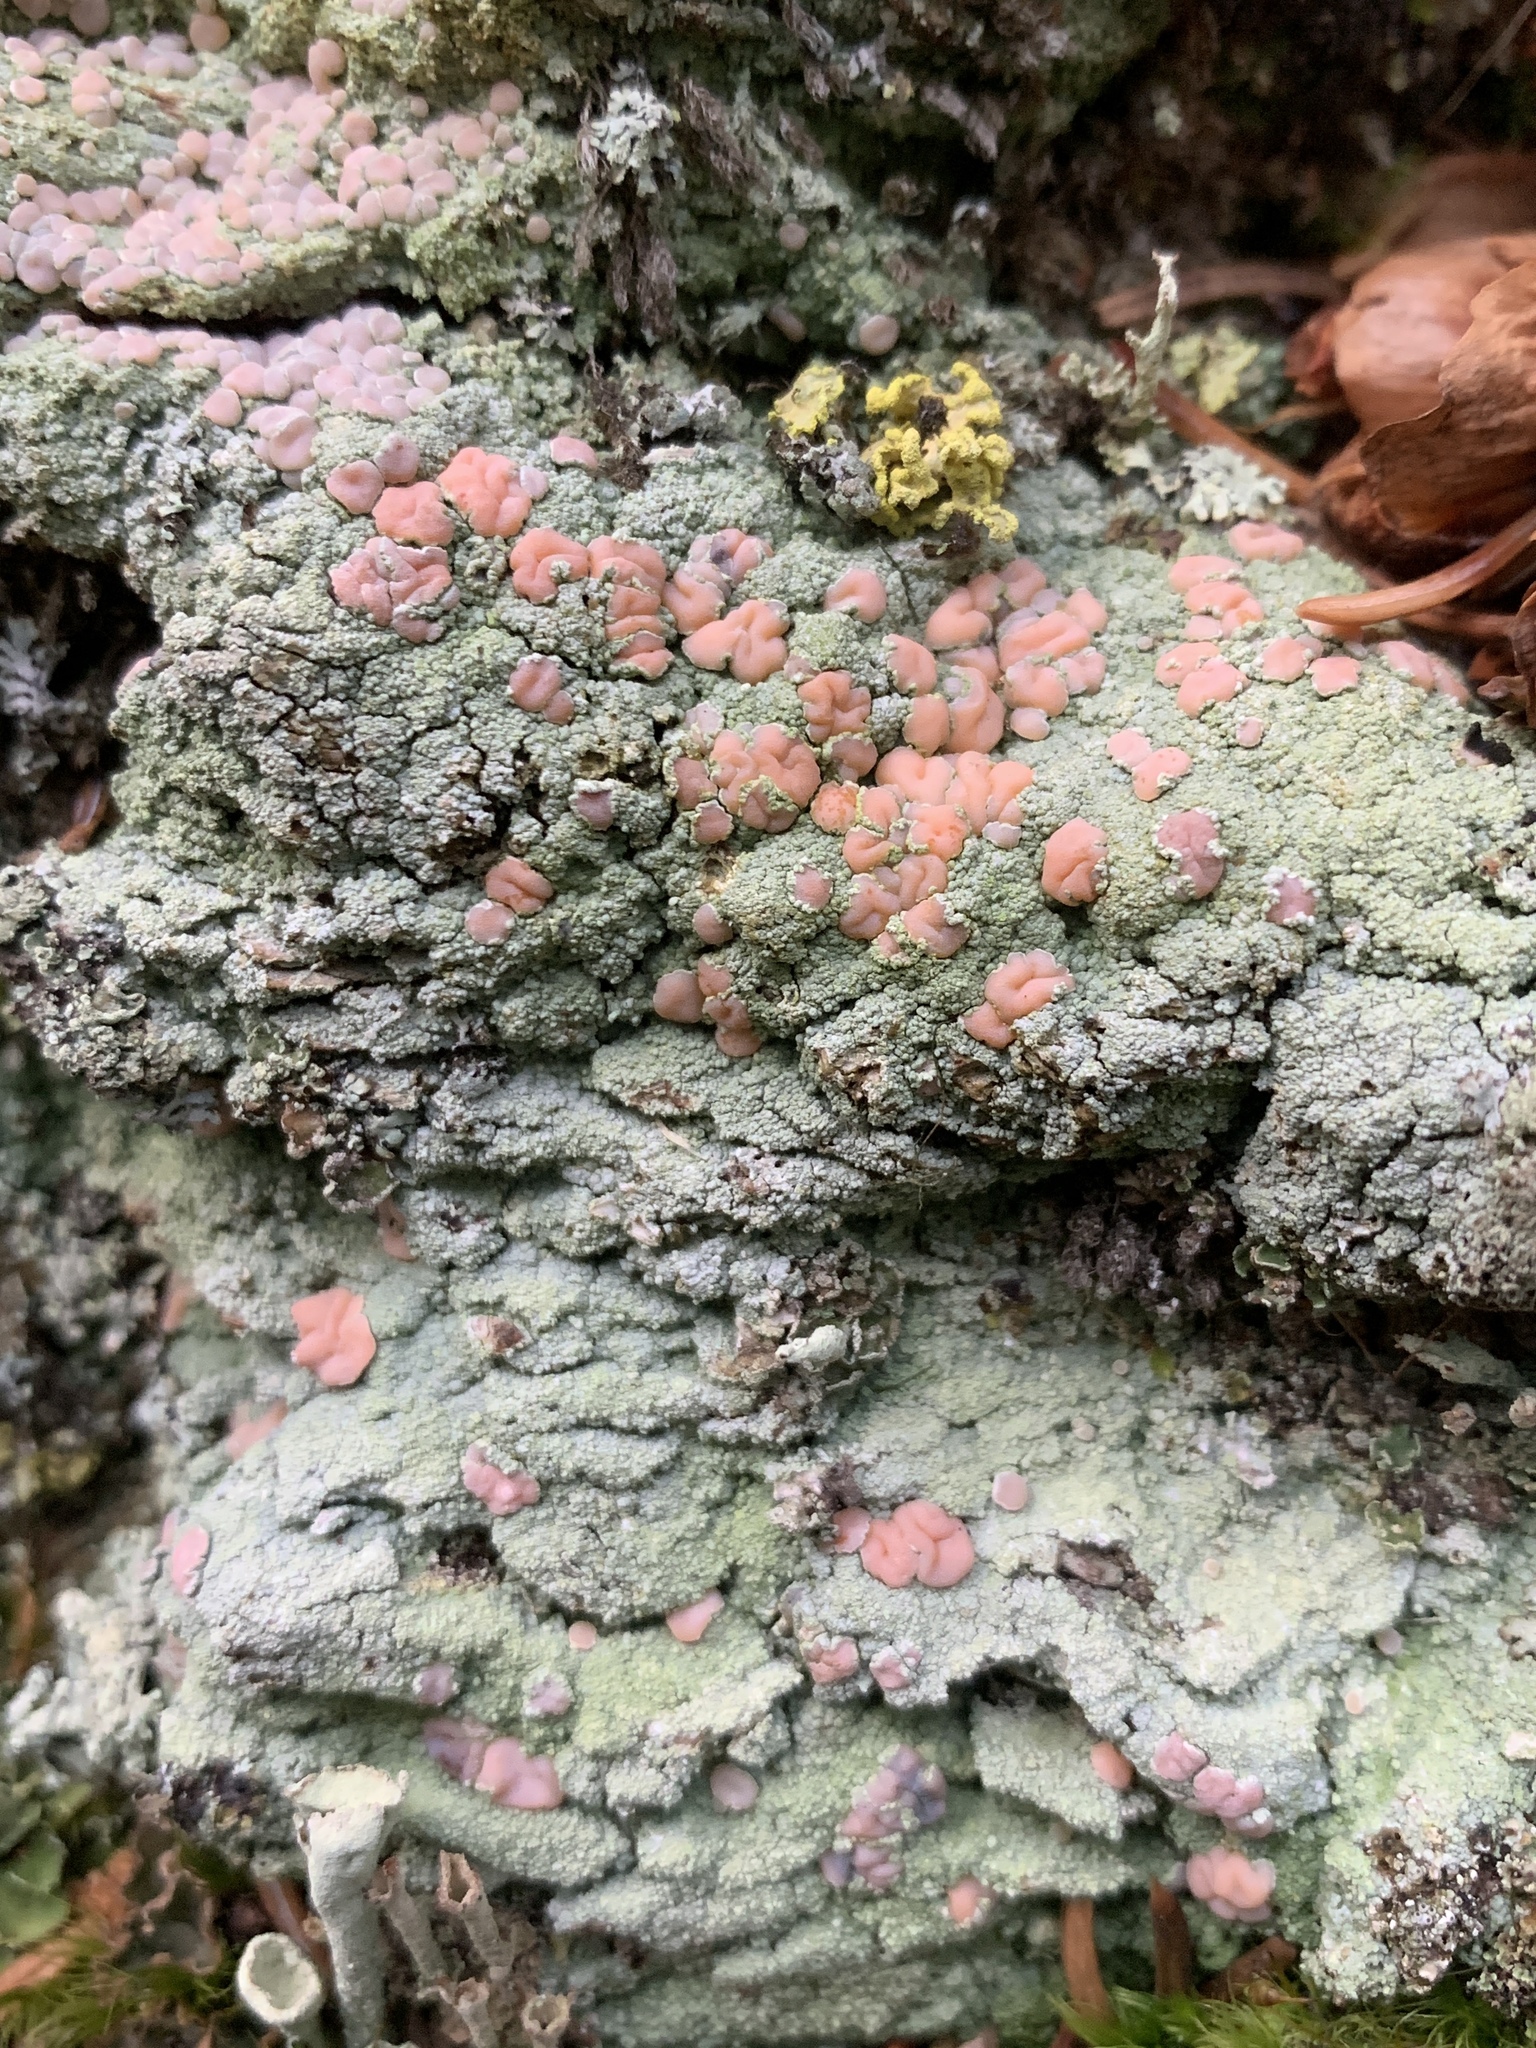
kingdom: Fungi
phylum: Ascomycota
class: Lecanoromycetes
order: Pertusariales
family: Icmadophilaceae
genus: Icmadophila
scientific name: Icmadophila ericetorum
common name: Candy lichen
